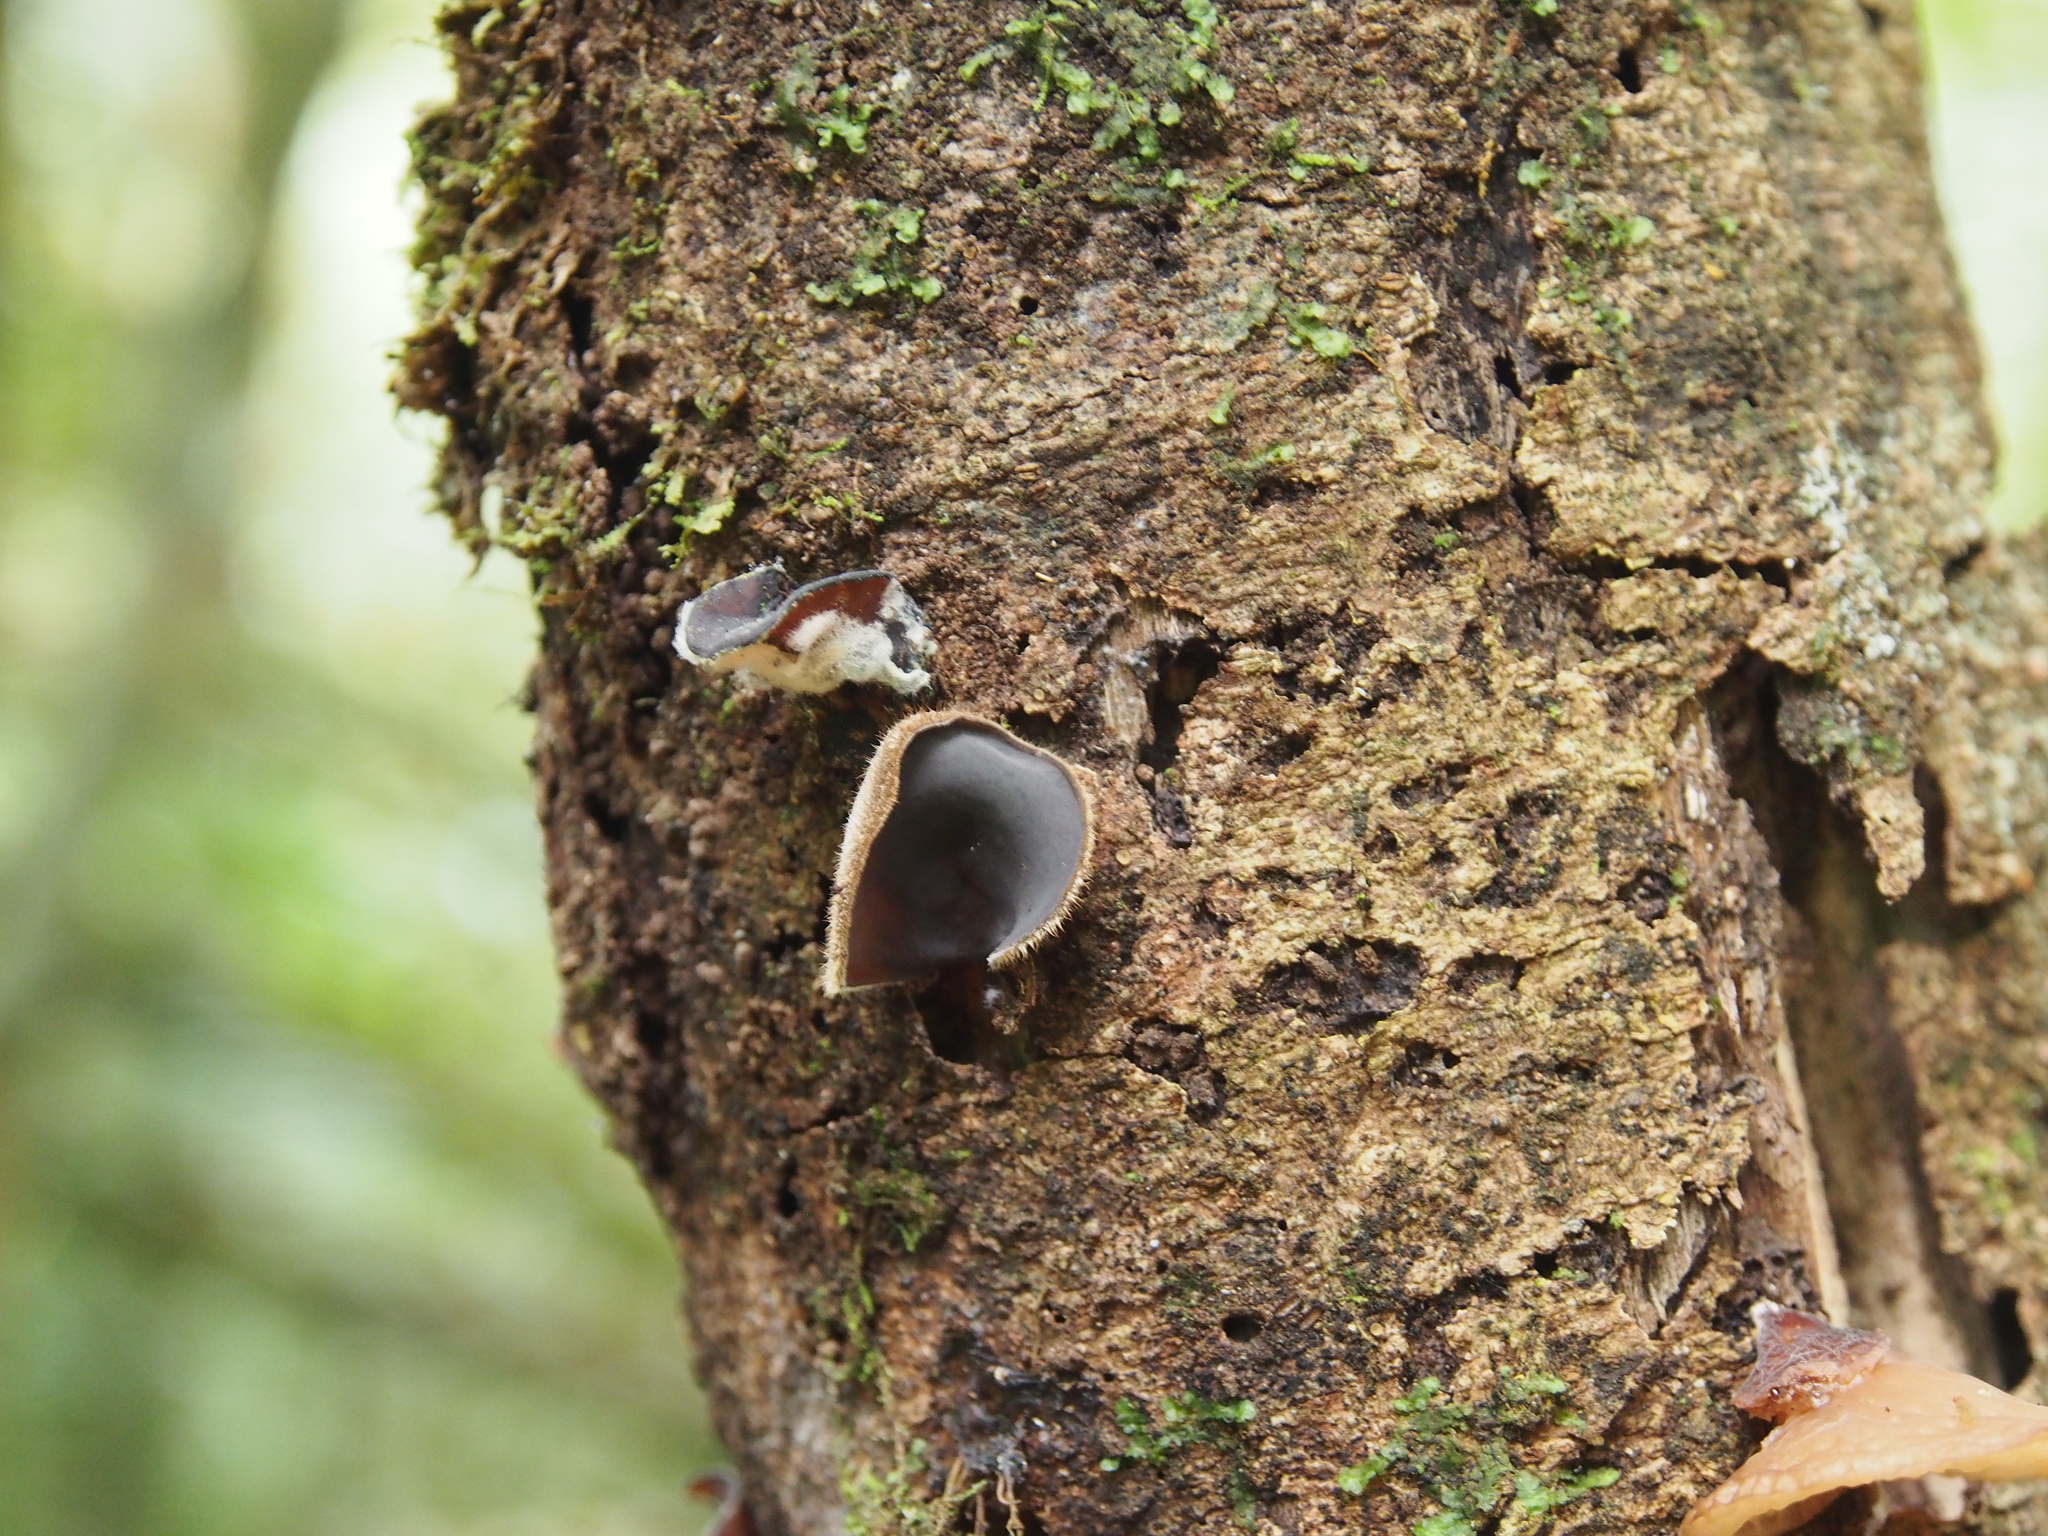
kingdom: Fungi
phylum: Basidiomycota
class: Agaricomycetes
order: Auriculariales
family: Auriculariaceae
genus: Auricularia
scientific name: Auricularia cornea
